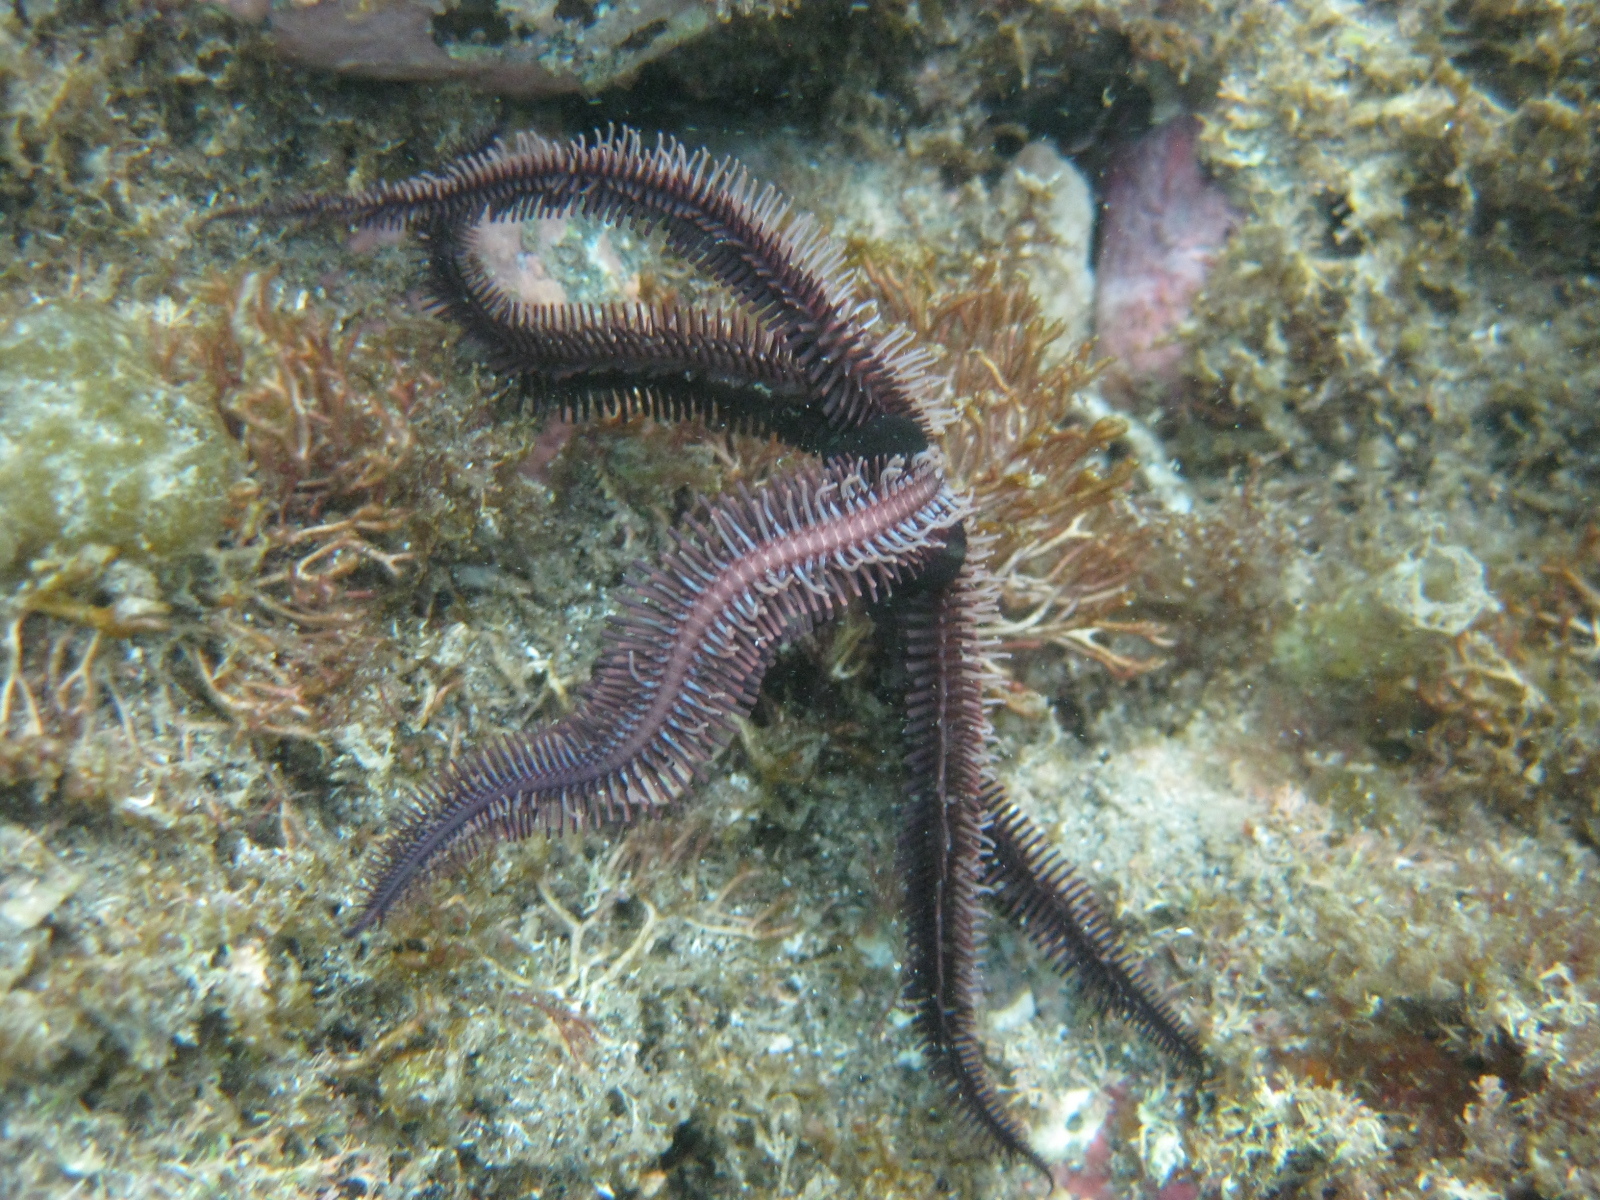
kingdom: Animalia
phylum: Echinodermata
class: Ophiuroidea
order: Ophiacanthida
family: Ophiopteridae
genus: Ophiopteris
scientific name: Ophiopteris antipodum
